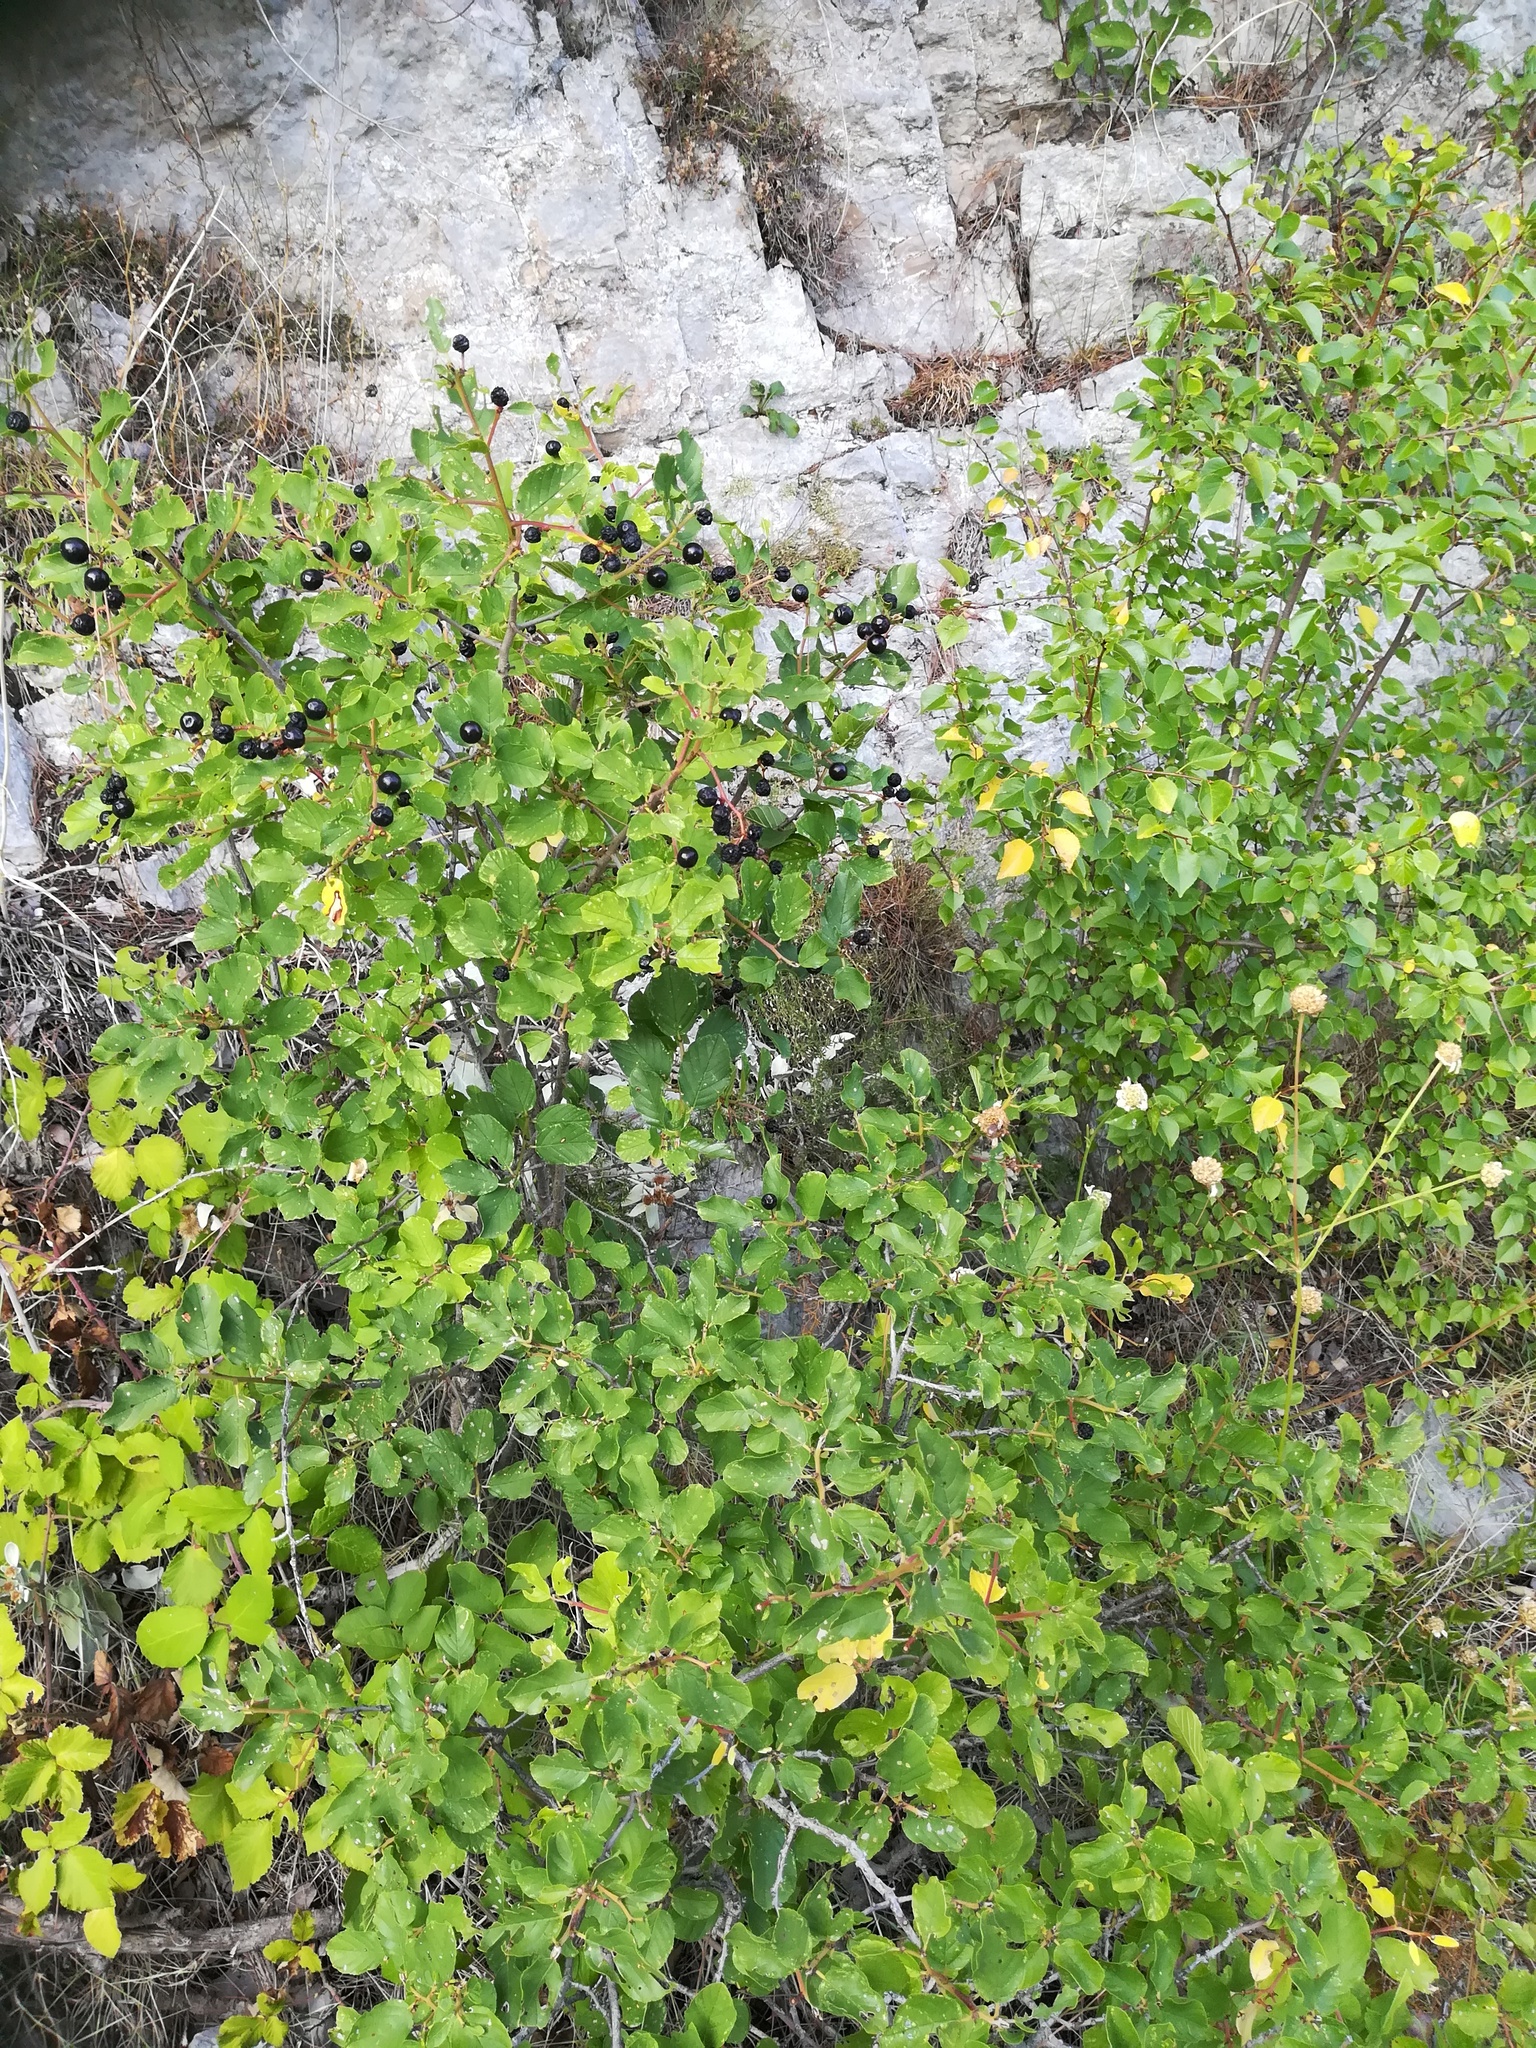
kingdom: Plantae
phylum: Tracheophyta
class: Magnoliopsida
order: Rosales
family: Rhamnaceae
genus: Frangula
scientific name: Frangula rupestris
